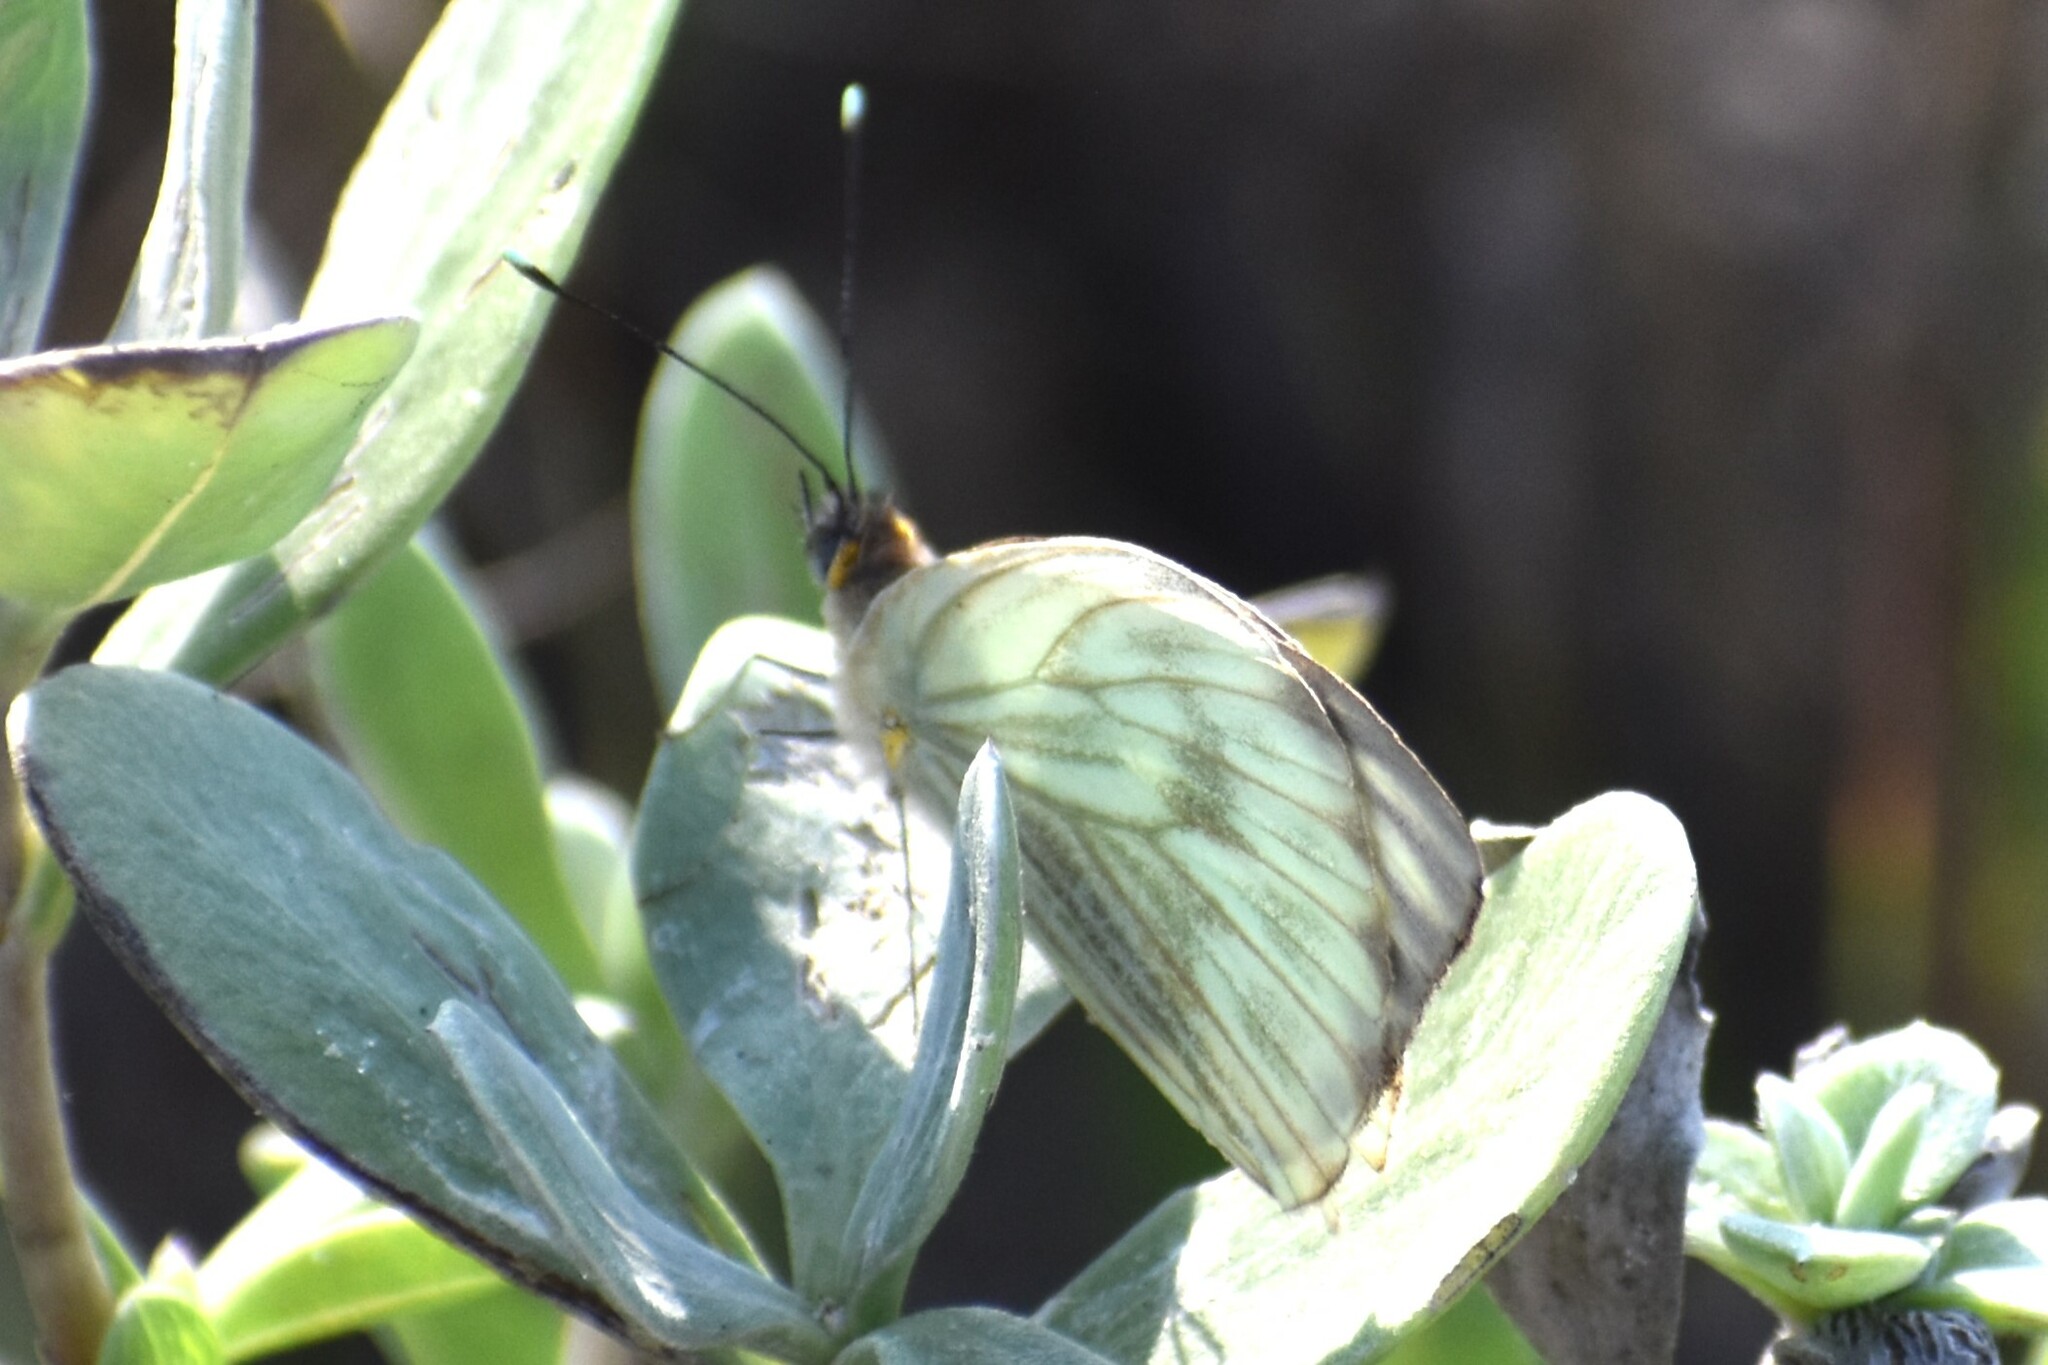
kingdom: Animalia
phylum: Arthropoda
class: Insecta
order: Lepidoptera
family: Pieridae
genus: Ascia
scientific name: Ascia monuste
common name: Great southern white
